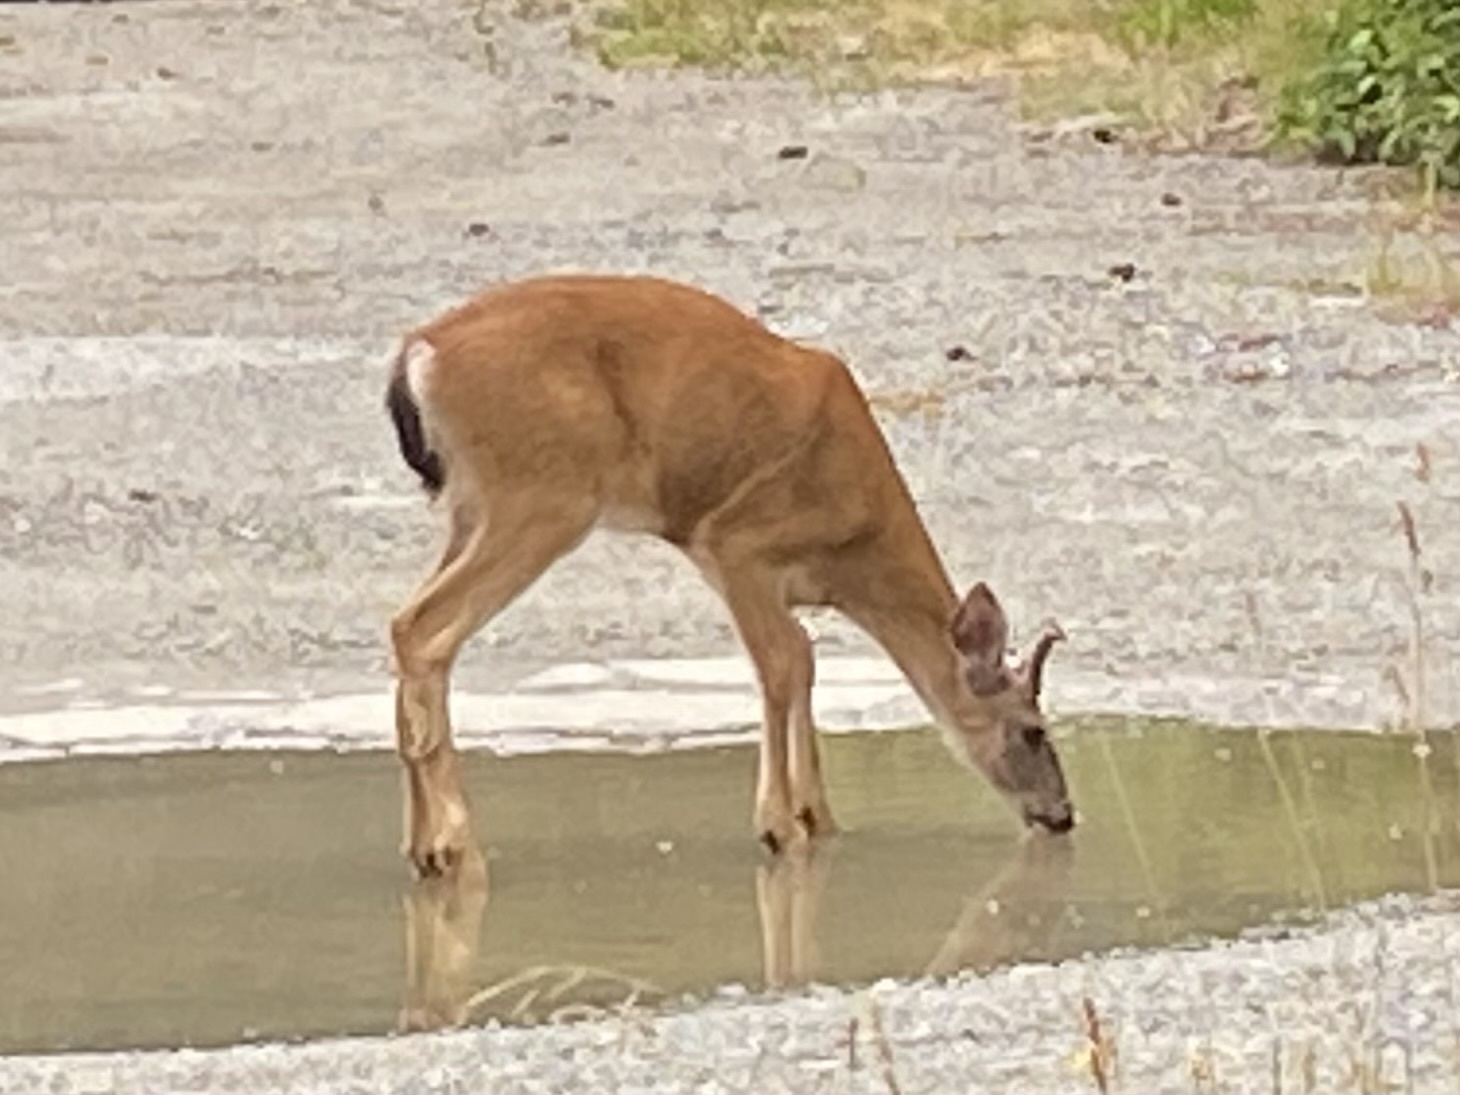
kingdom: Animalia
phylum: Chordata
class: Mammalia
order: Artiodactyla
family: Cervidae
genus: Odocoileus
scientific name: Odocoileus hemionus
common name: Mule deer
